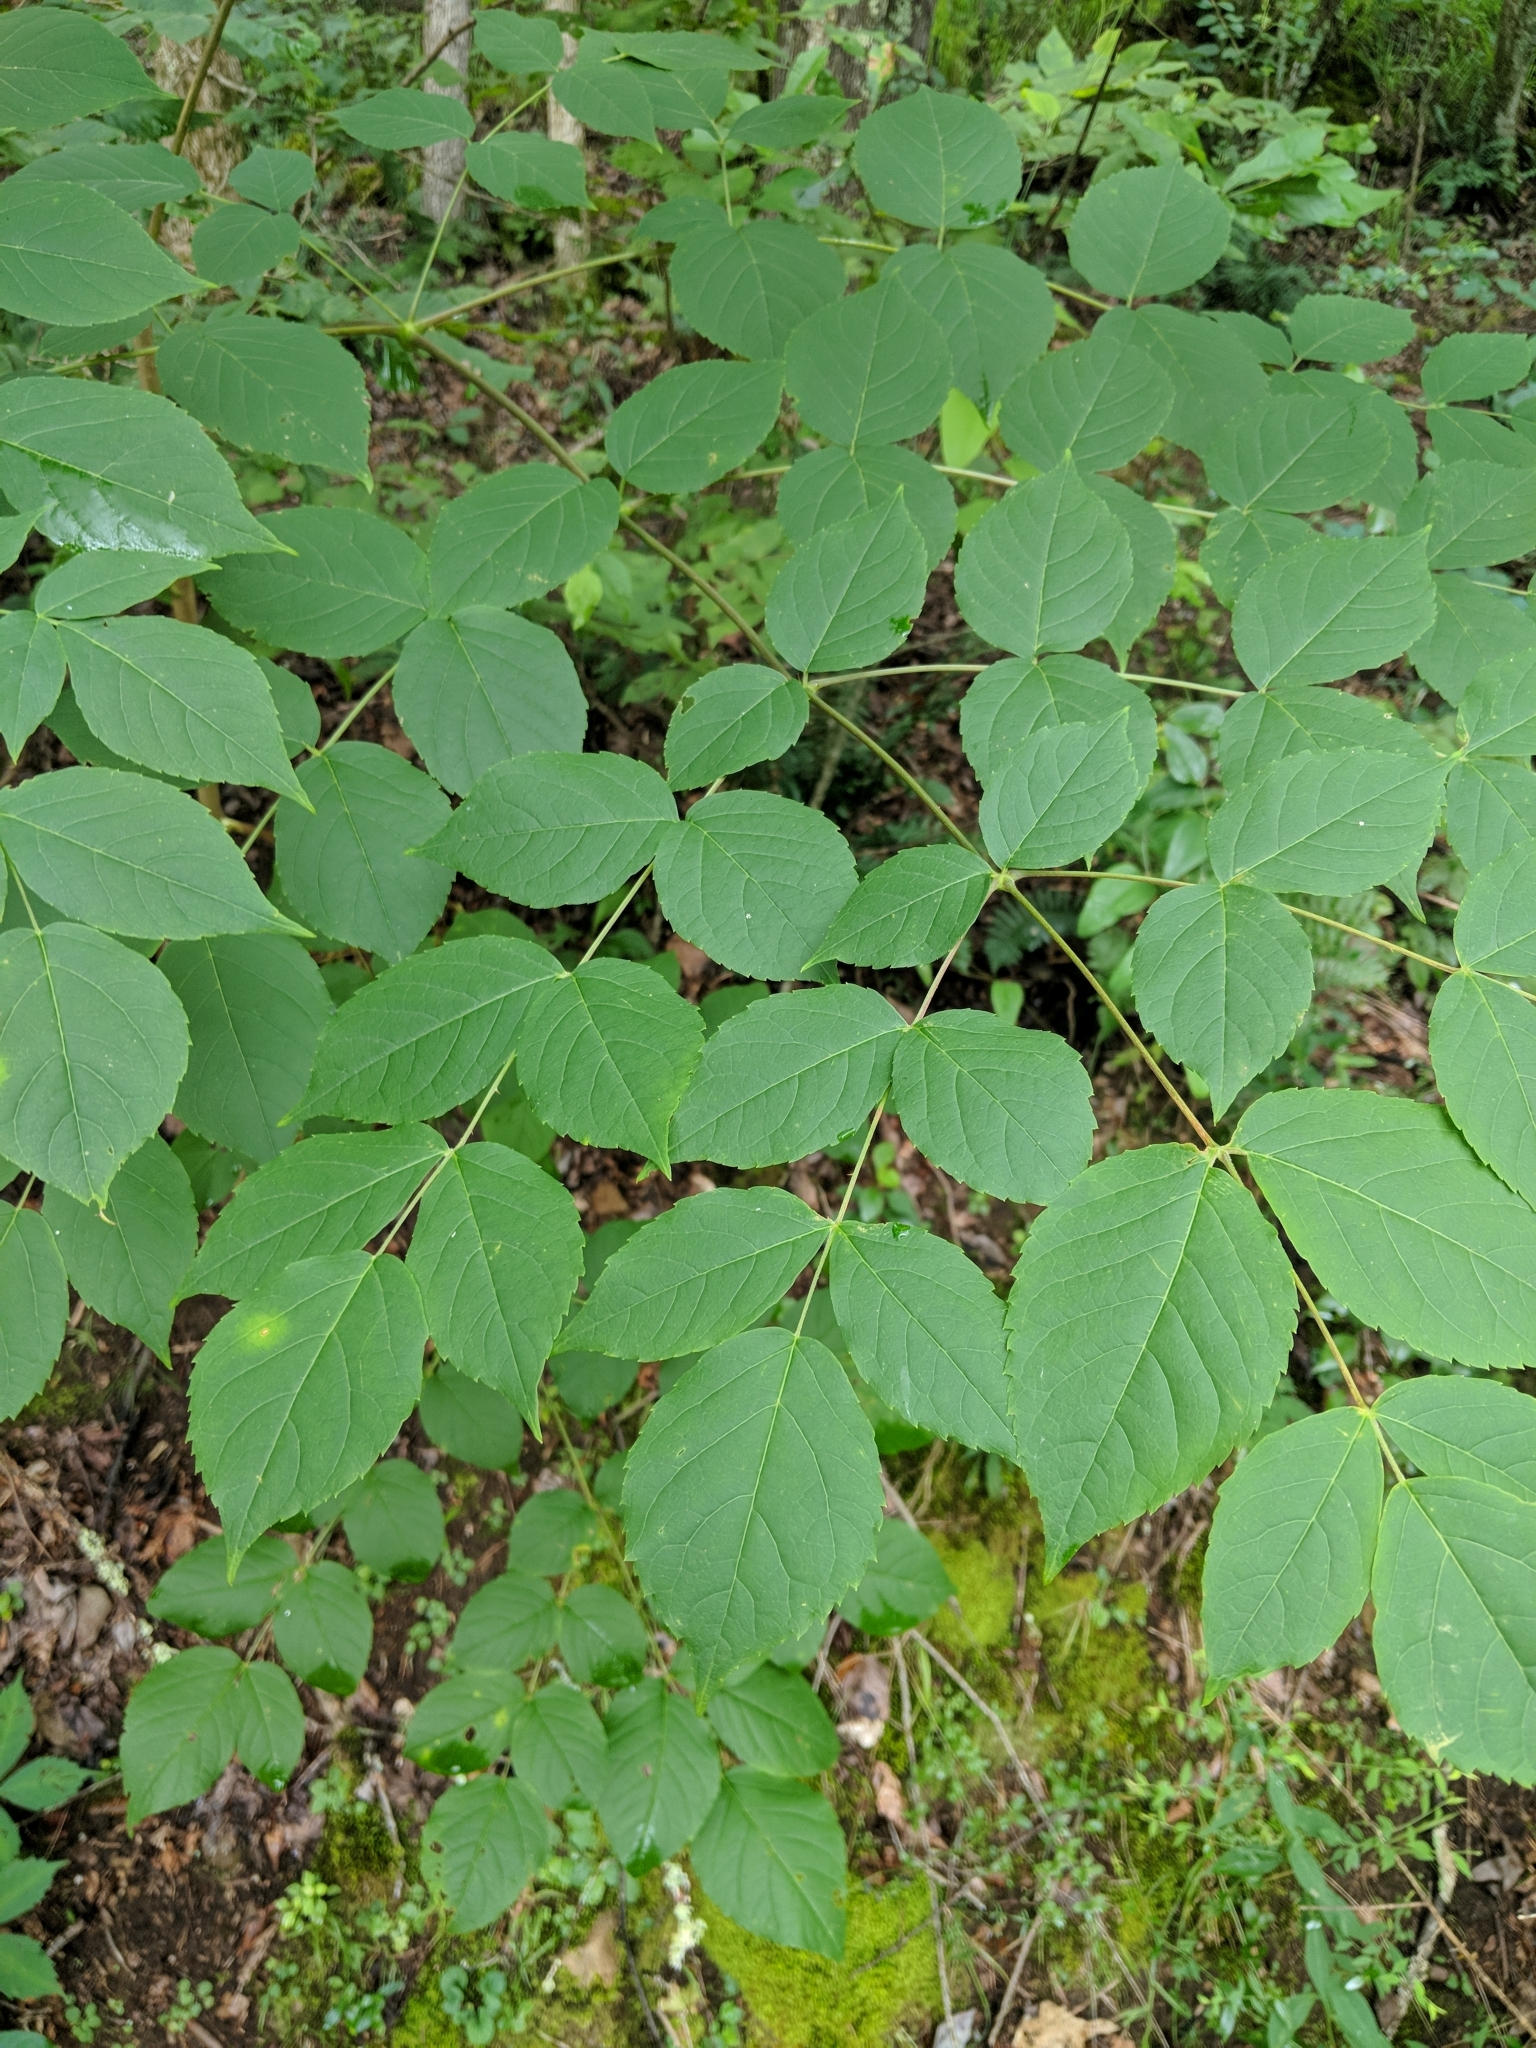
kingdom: Plantae
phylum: Tracheophyta
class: Magnoliopsida
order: Apiales
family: Araliaceae
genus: Aralia
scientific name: Aralia spinosa
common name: Hercules'-club
